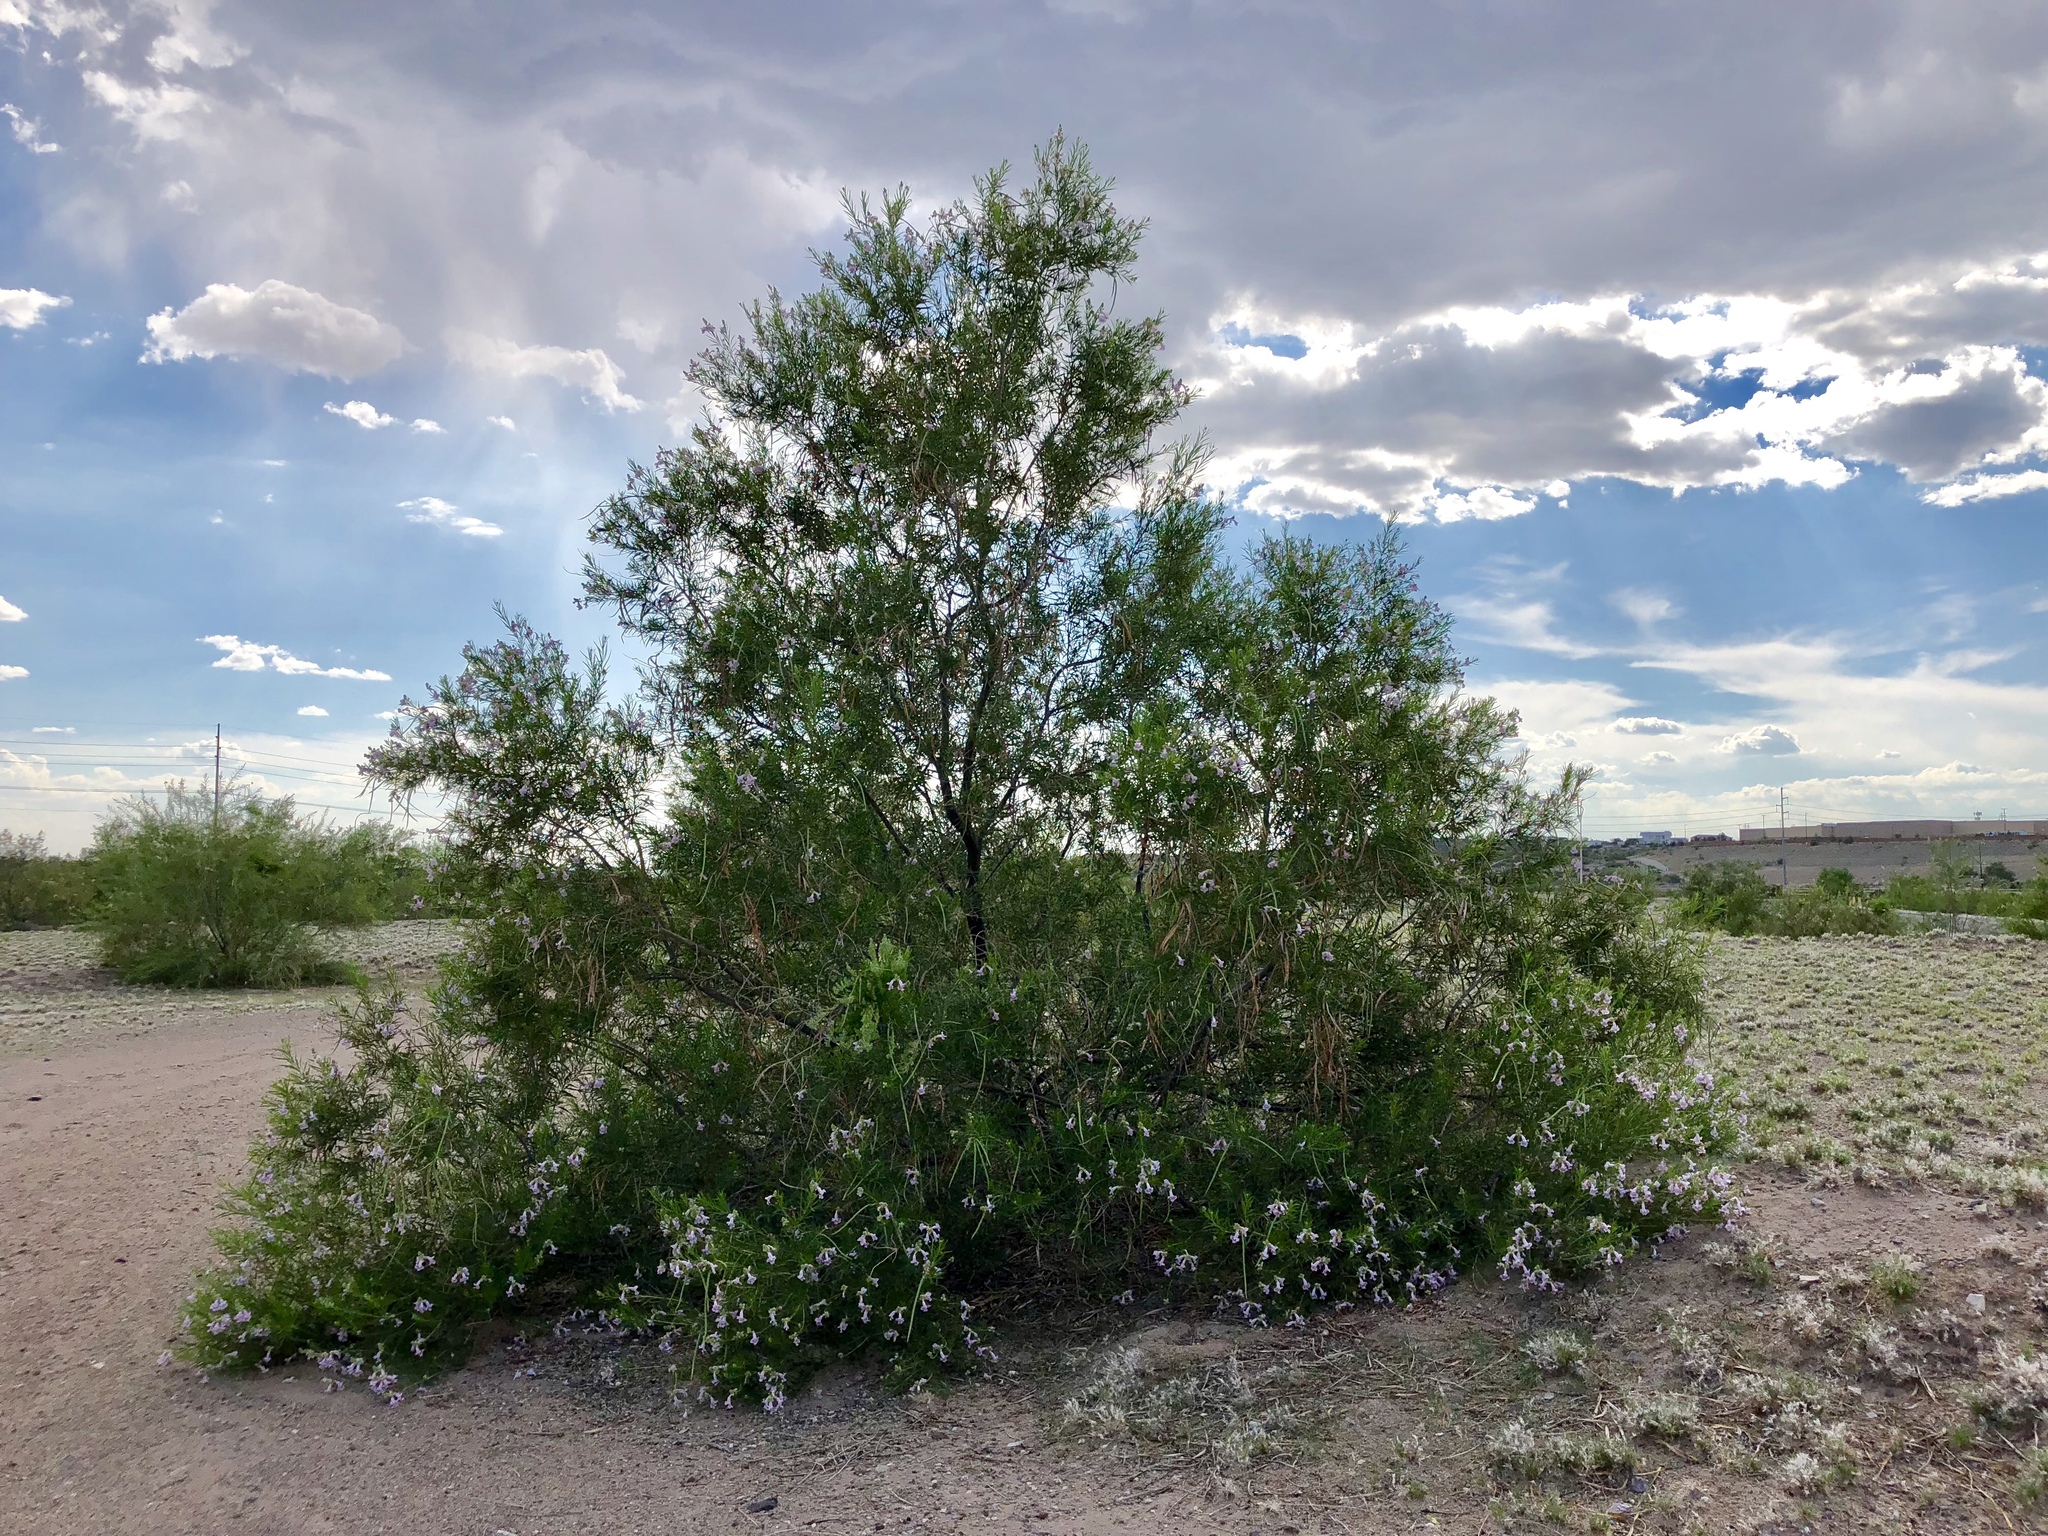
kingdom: Plantae
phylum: Tracheophyta
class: Magnoliopsida
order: Lamiales
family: Bignoniaceae
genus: Chilopsis
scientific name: Chilopsis linearis
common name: Desert-willow
